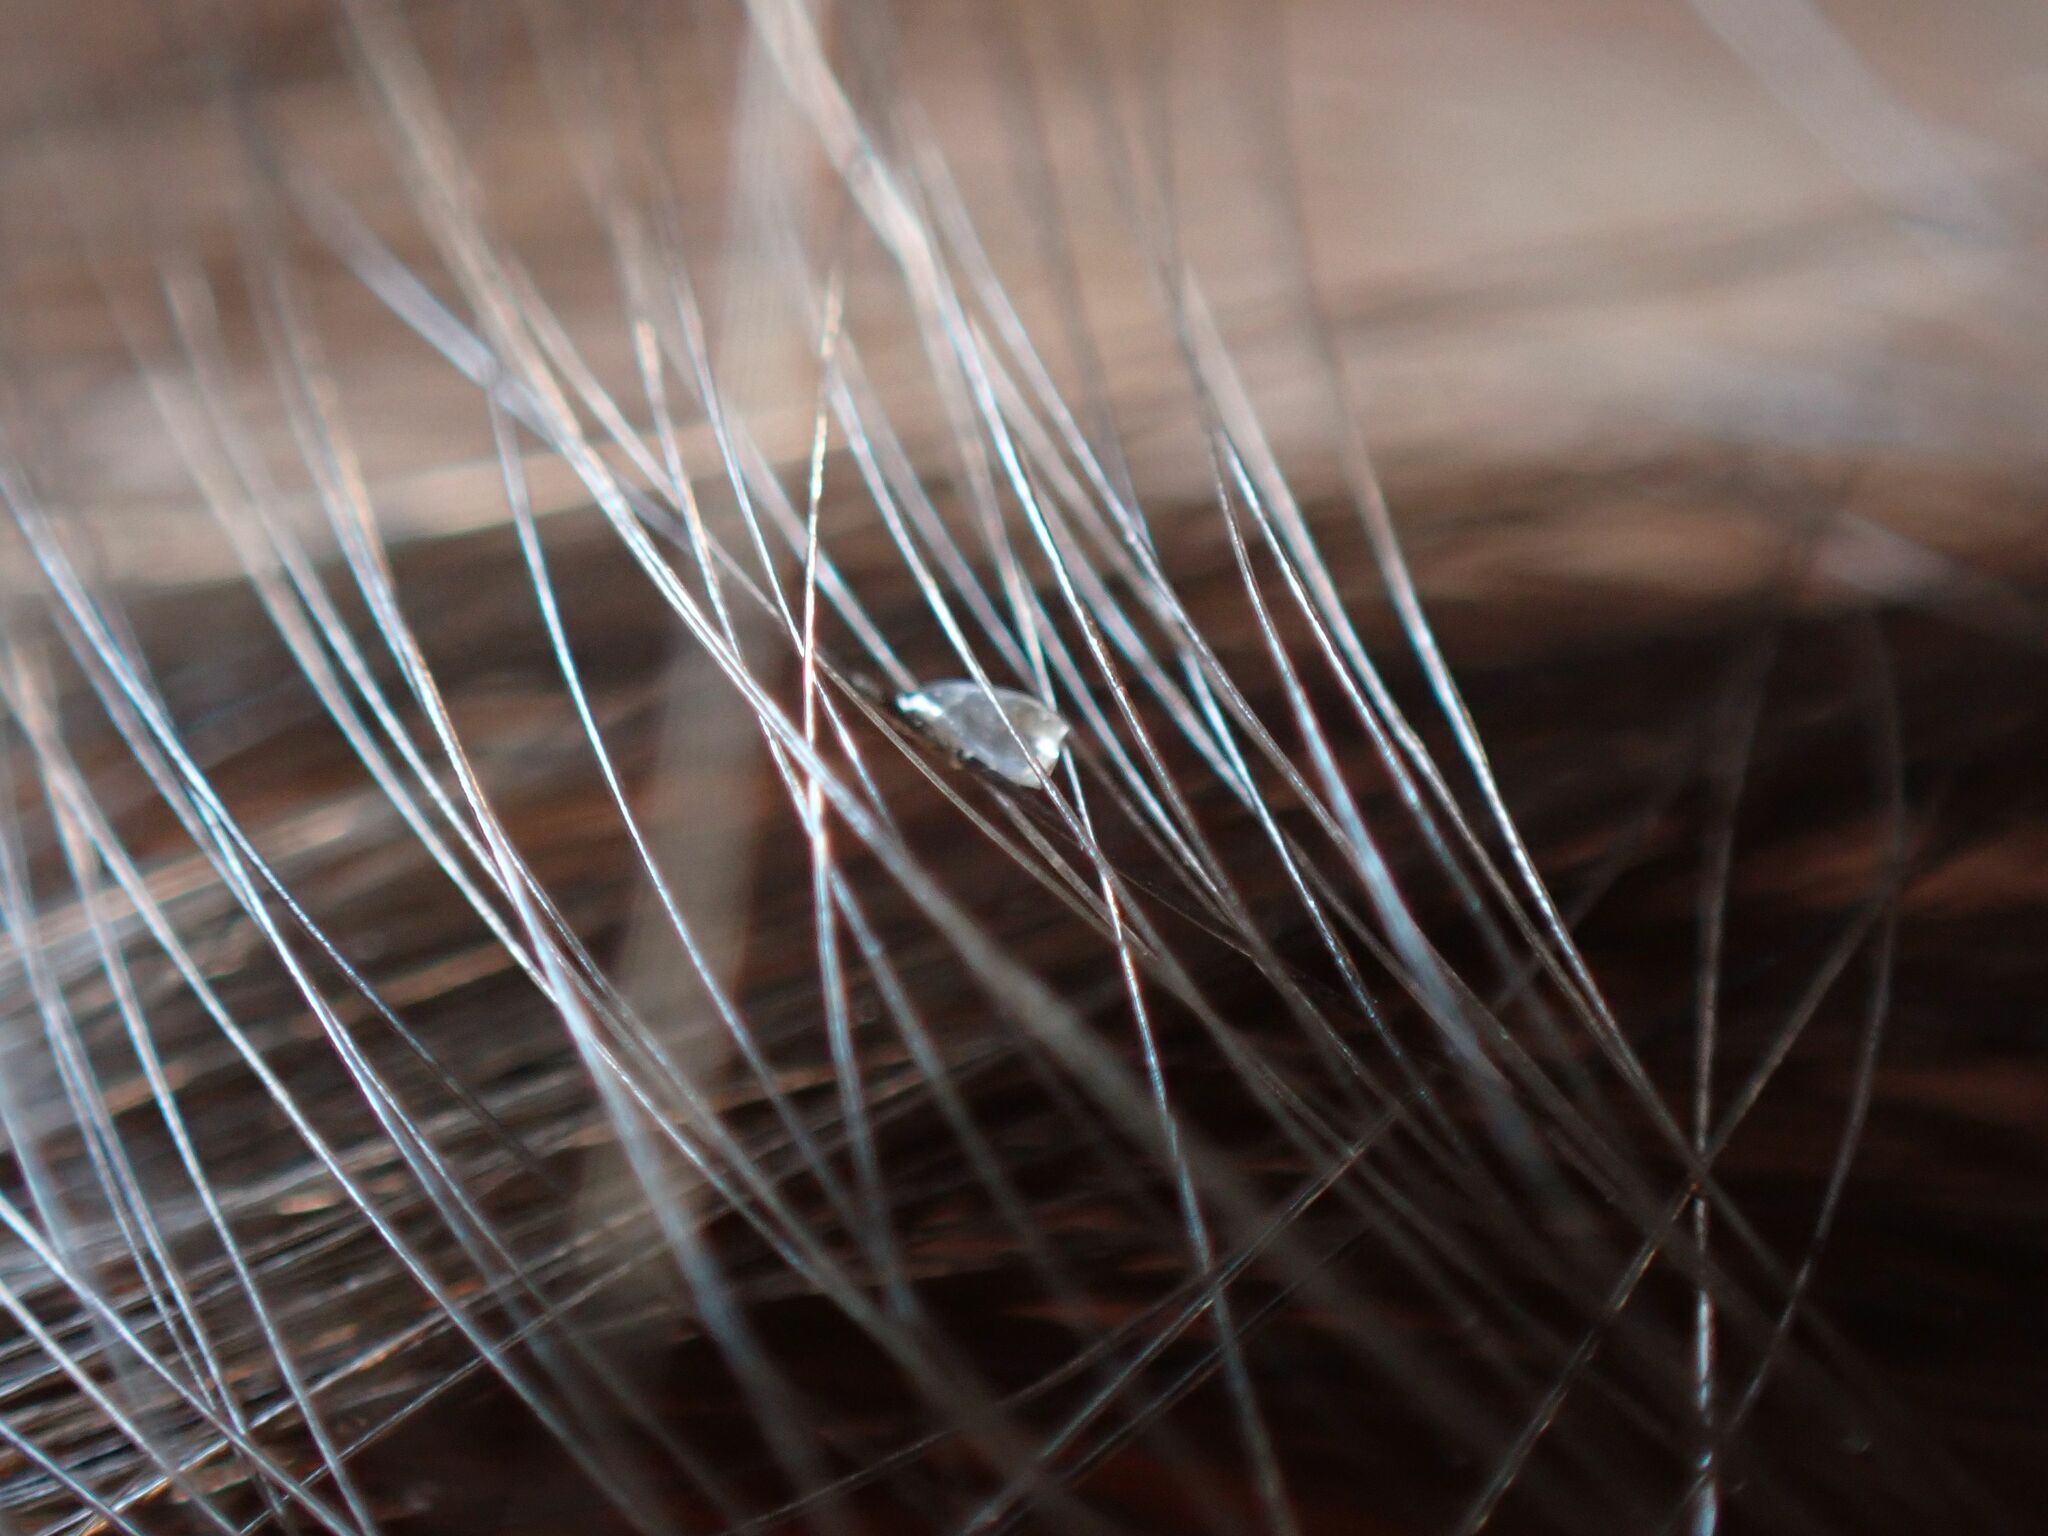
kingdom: Animalia
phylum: Arthropoda
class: Insecta
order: Psocodea
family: Pediculidae
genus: Pediculus
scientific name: Pediculus humanus
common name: Body louse
